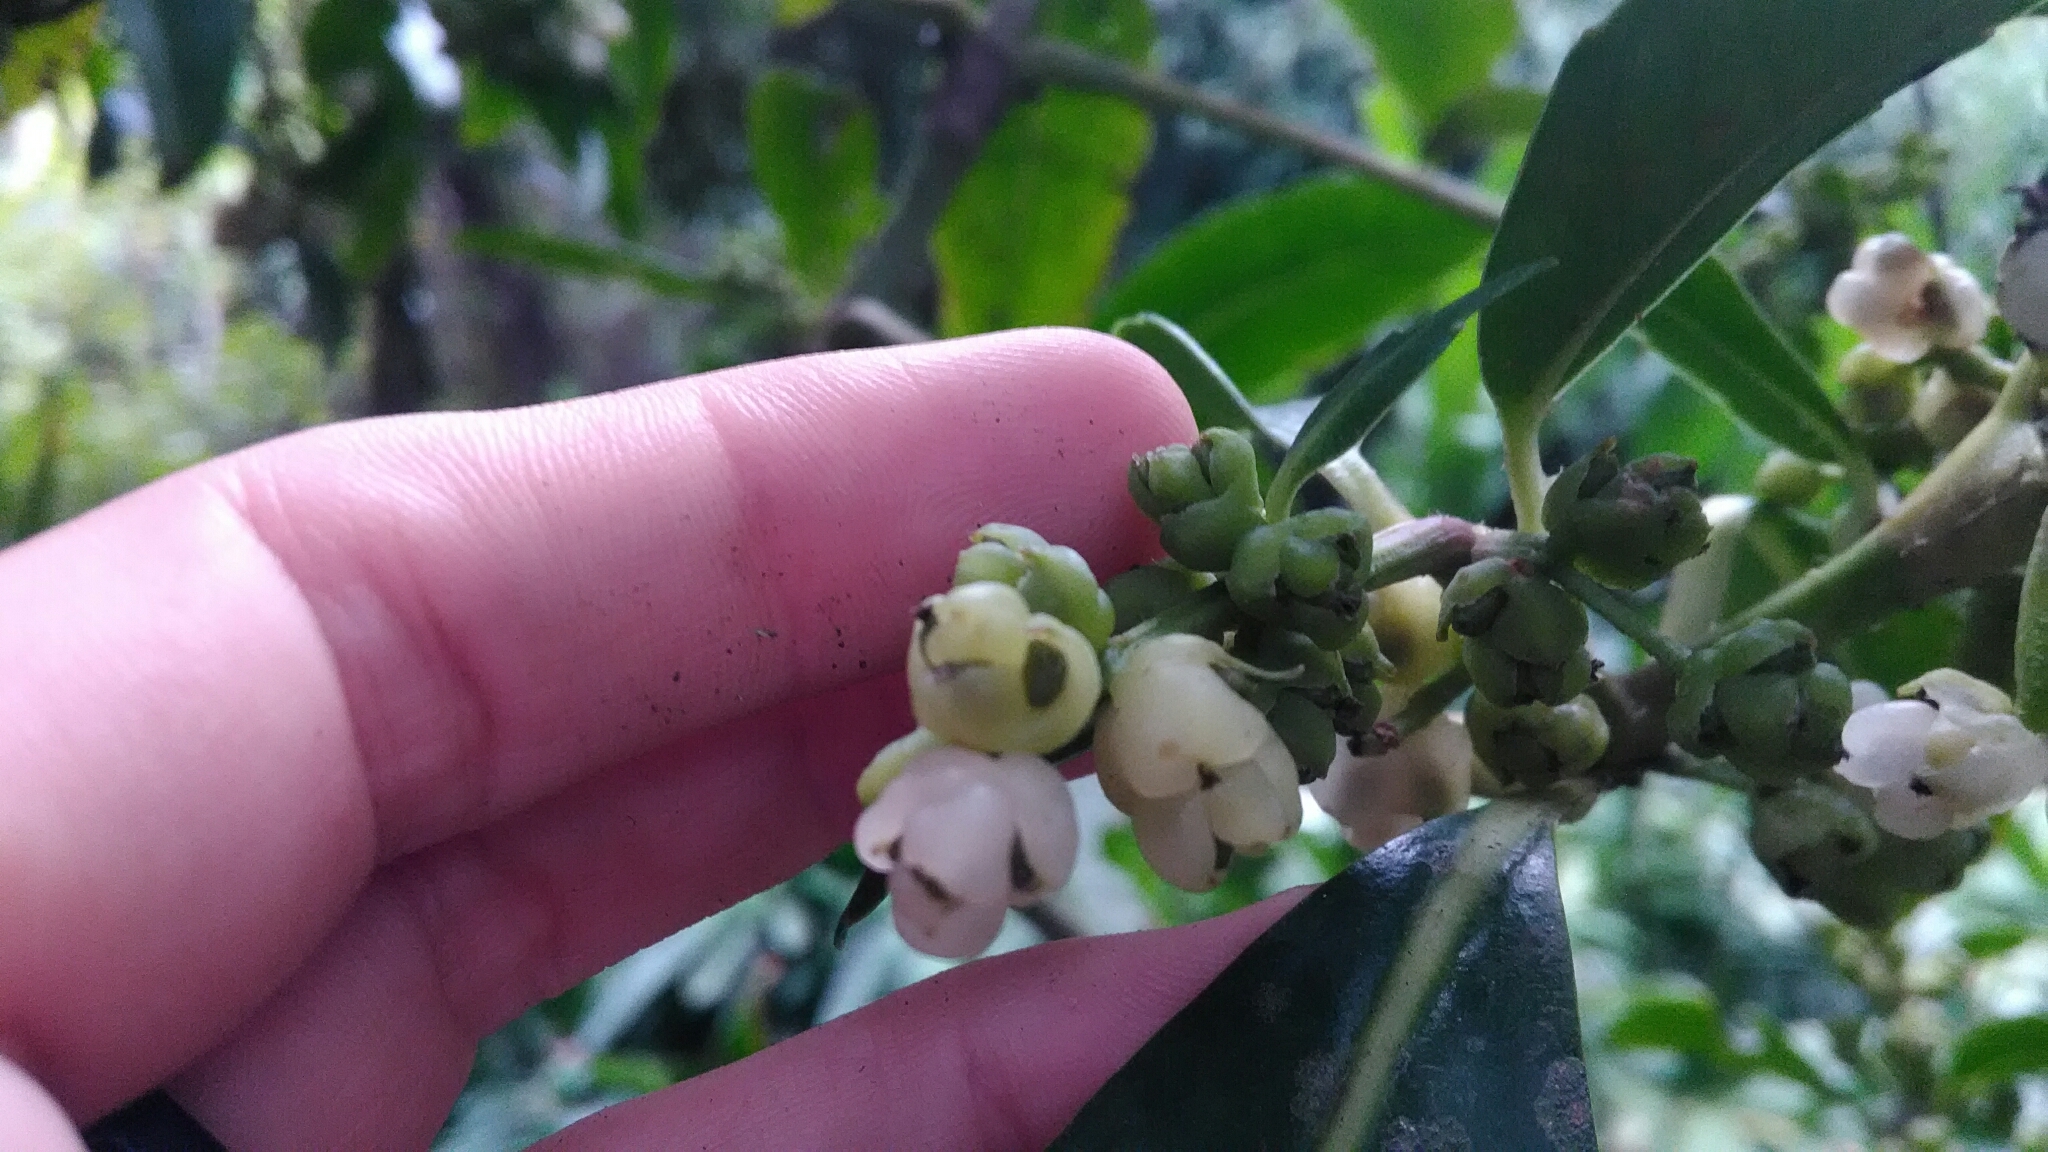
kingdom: Plantae
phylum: Tracheophyta
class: Magnoliopsida
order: Chloranthales
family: Chloranthaceae
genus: Hedyosmum
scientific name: Hedyosmum brasiliense
